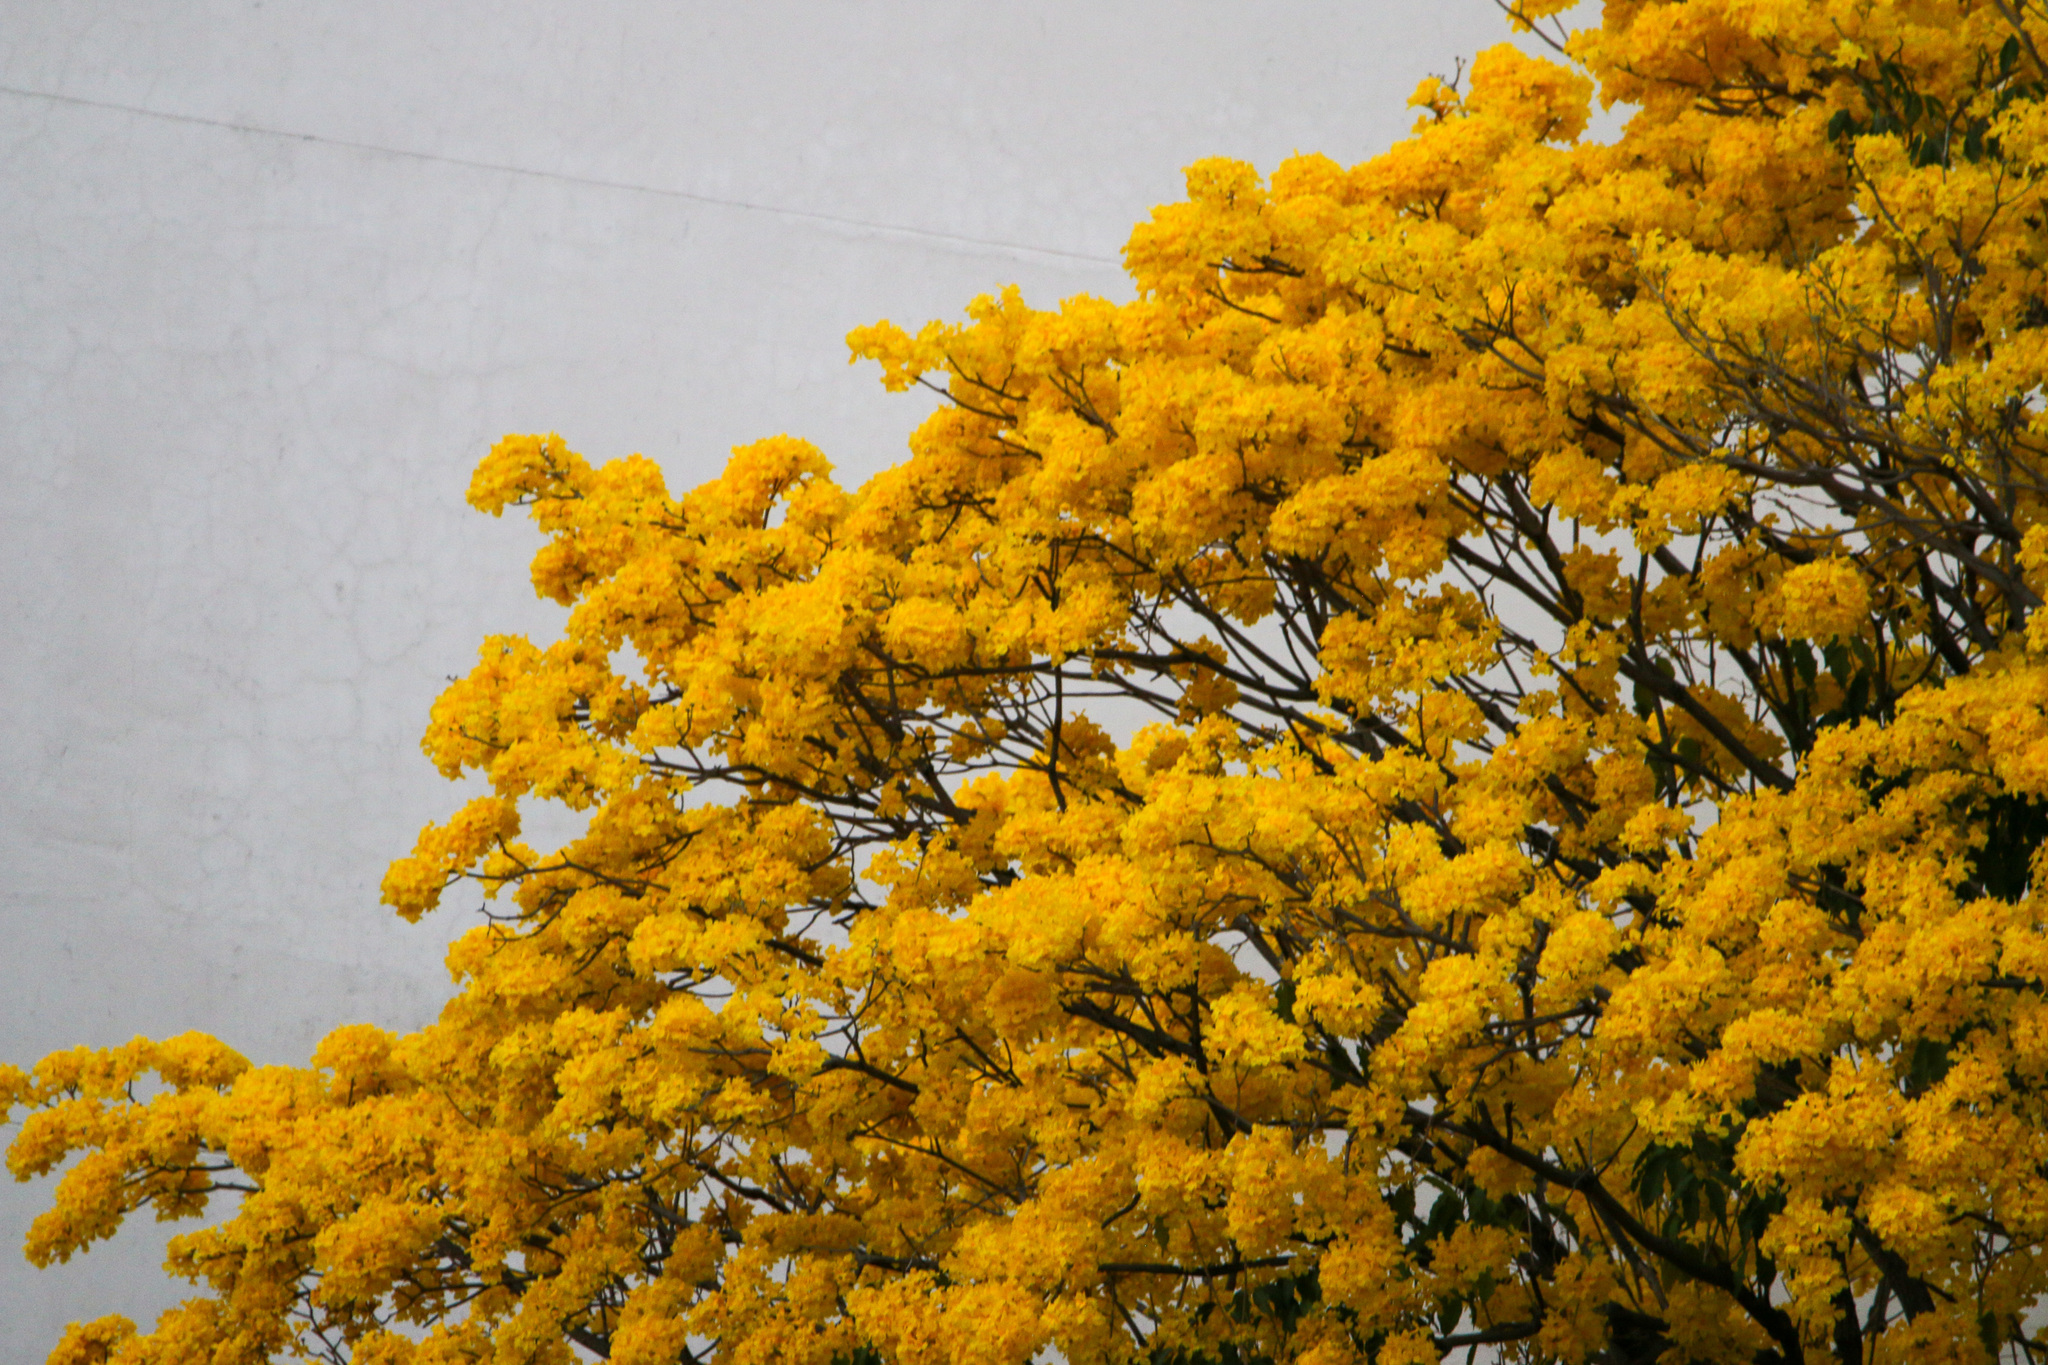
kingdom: Plantae
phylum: Tracheophyta
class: Magnoliopsida
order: Lamiales
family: Bignoniaceae
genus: Handroanthus
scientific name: Handroanthus guayacan
